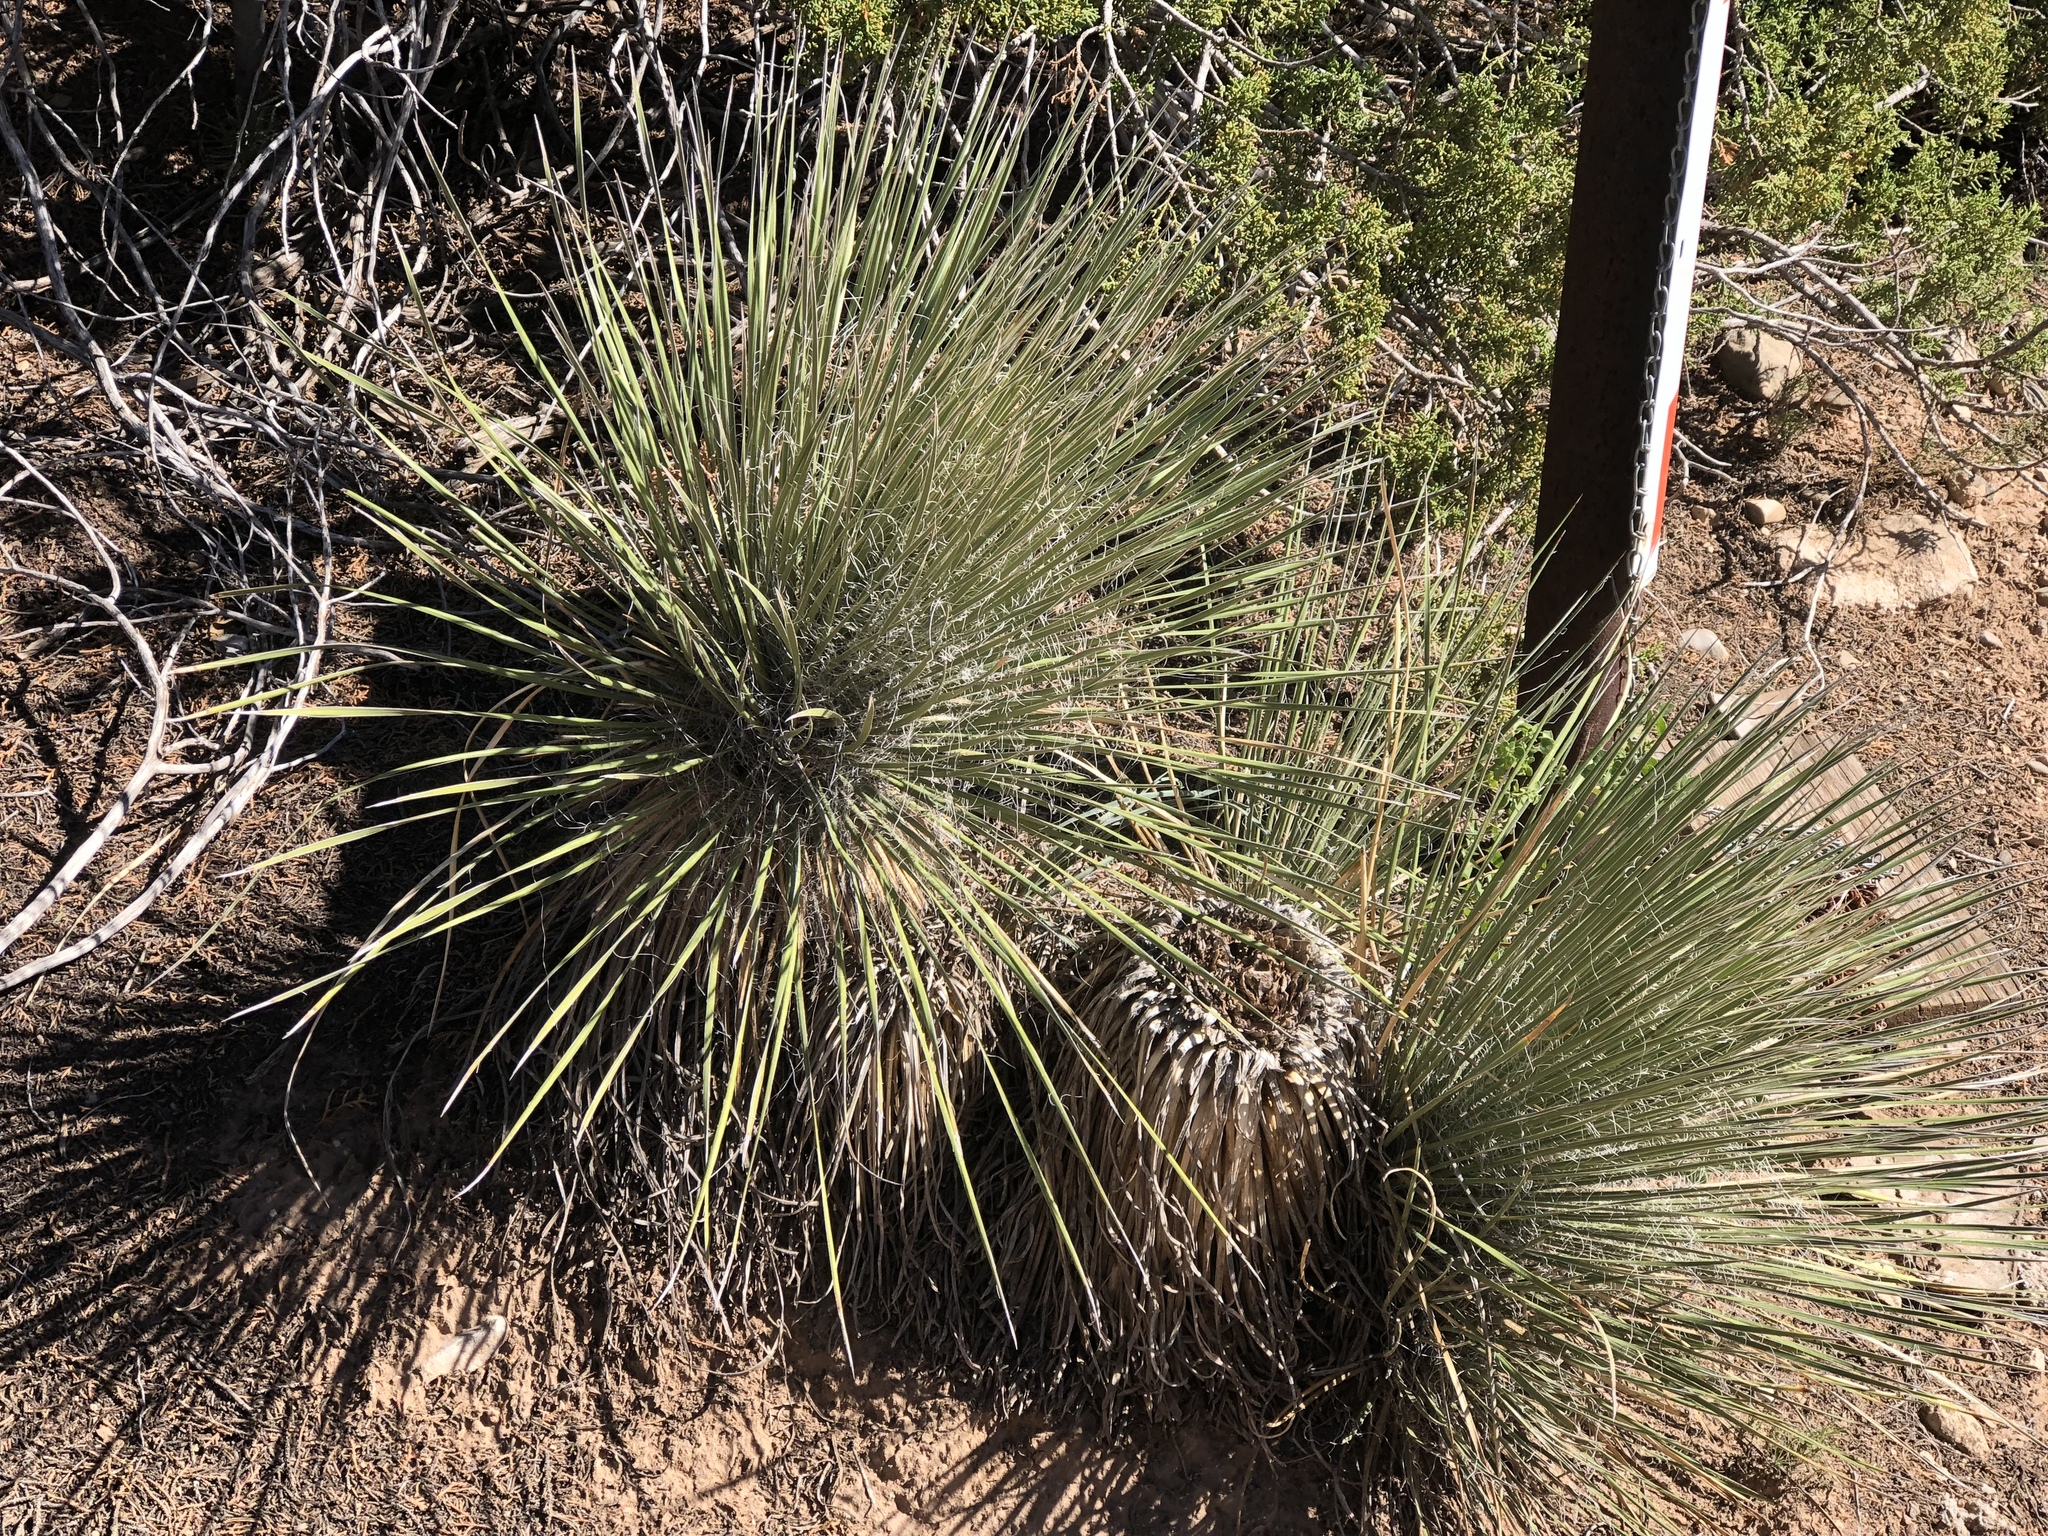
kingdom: Plantae
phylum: Tracheophyta
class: Liliopsida
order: Asparagales
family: Asparagaceae
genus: Yucca
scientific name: Yucca elata
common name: Palmella
